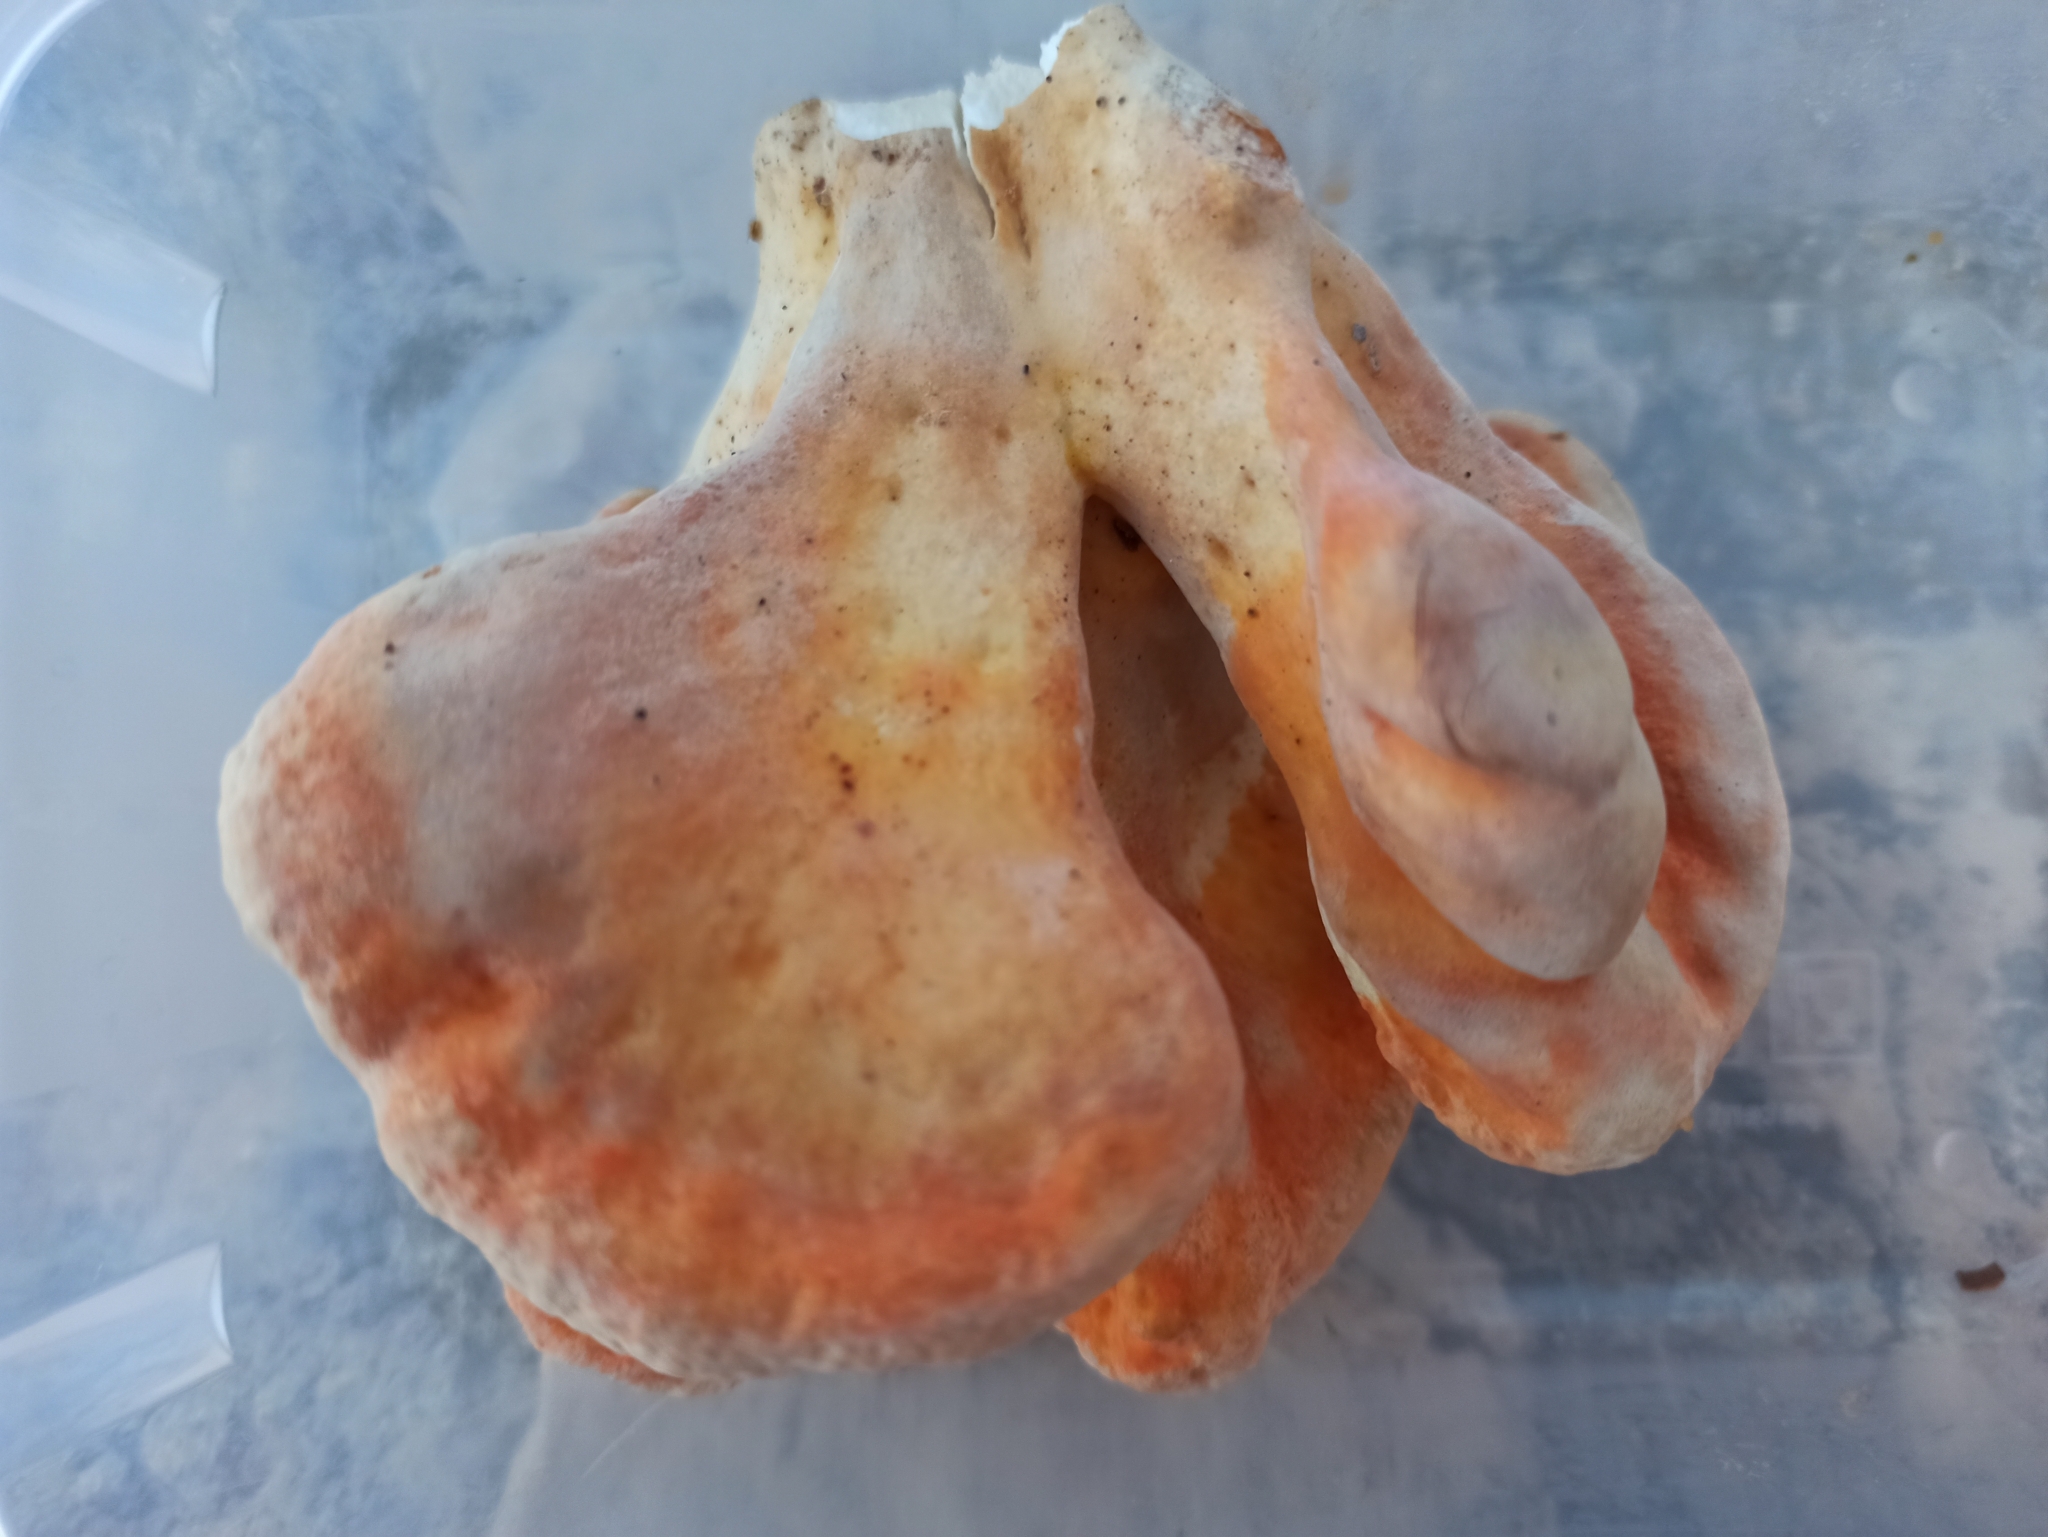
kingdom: Fungi
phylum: Basidiomycota
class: Agaricomycetes
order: Polyporales
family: Laetiporaceae
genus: Laetiporus
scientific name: Laetiporus sulphureus
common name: Chicken of the woods
